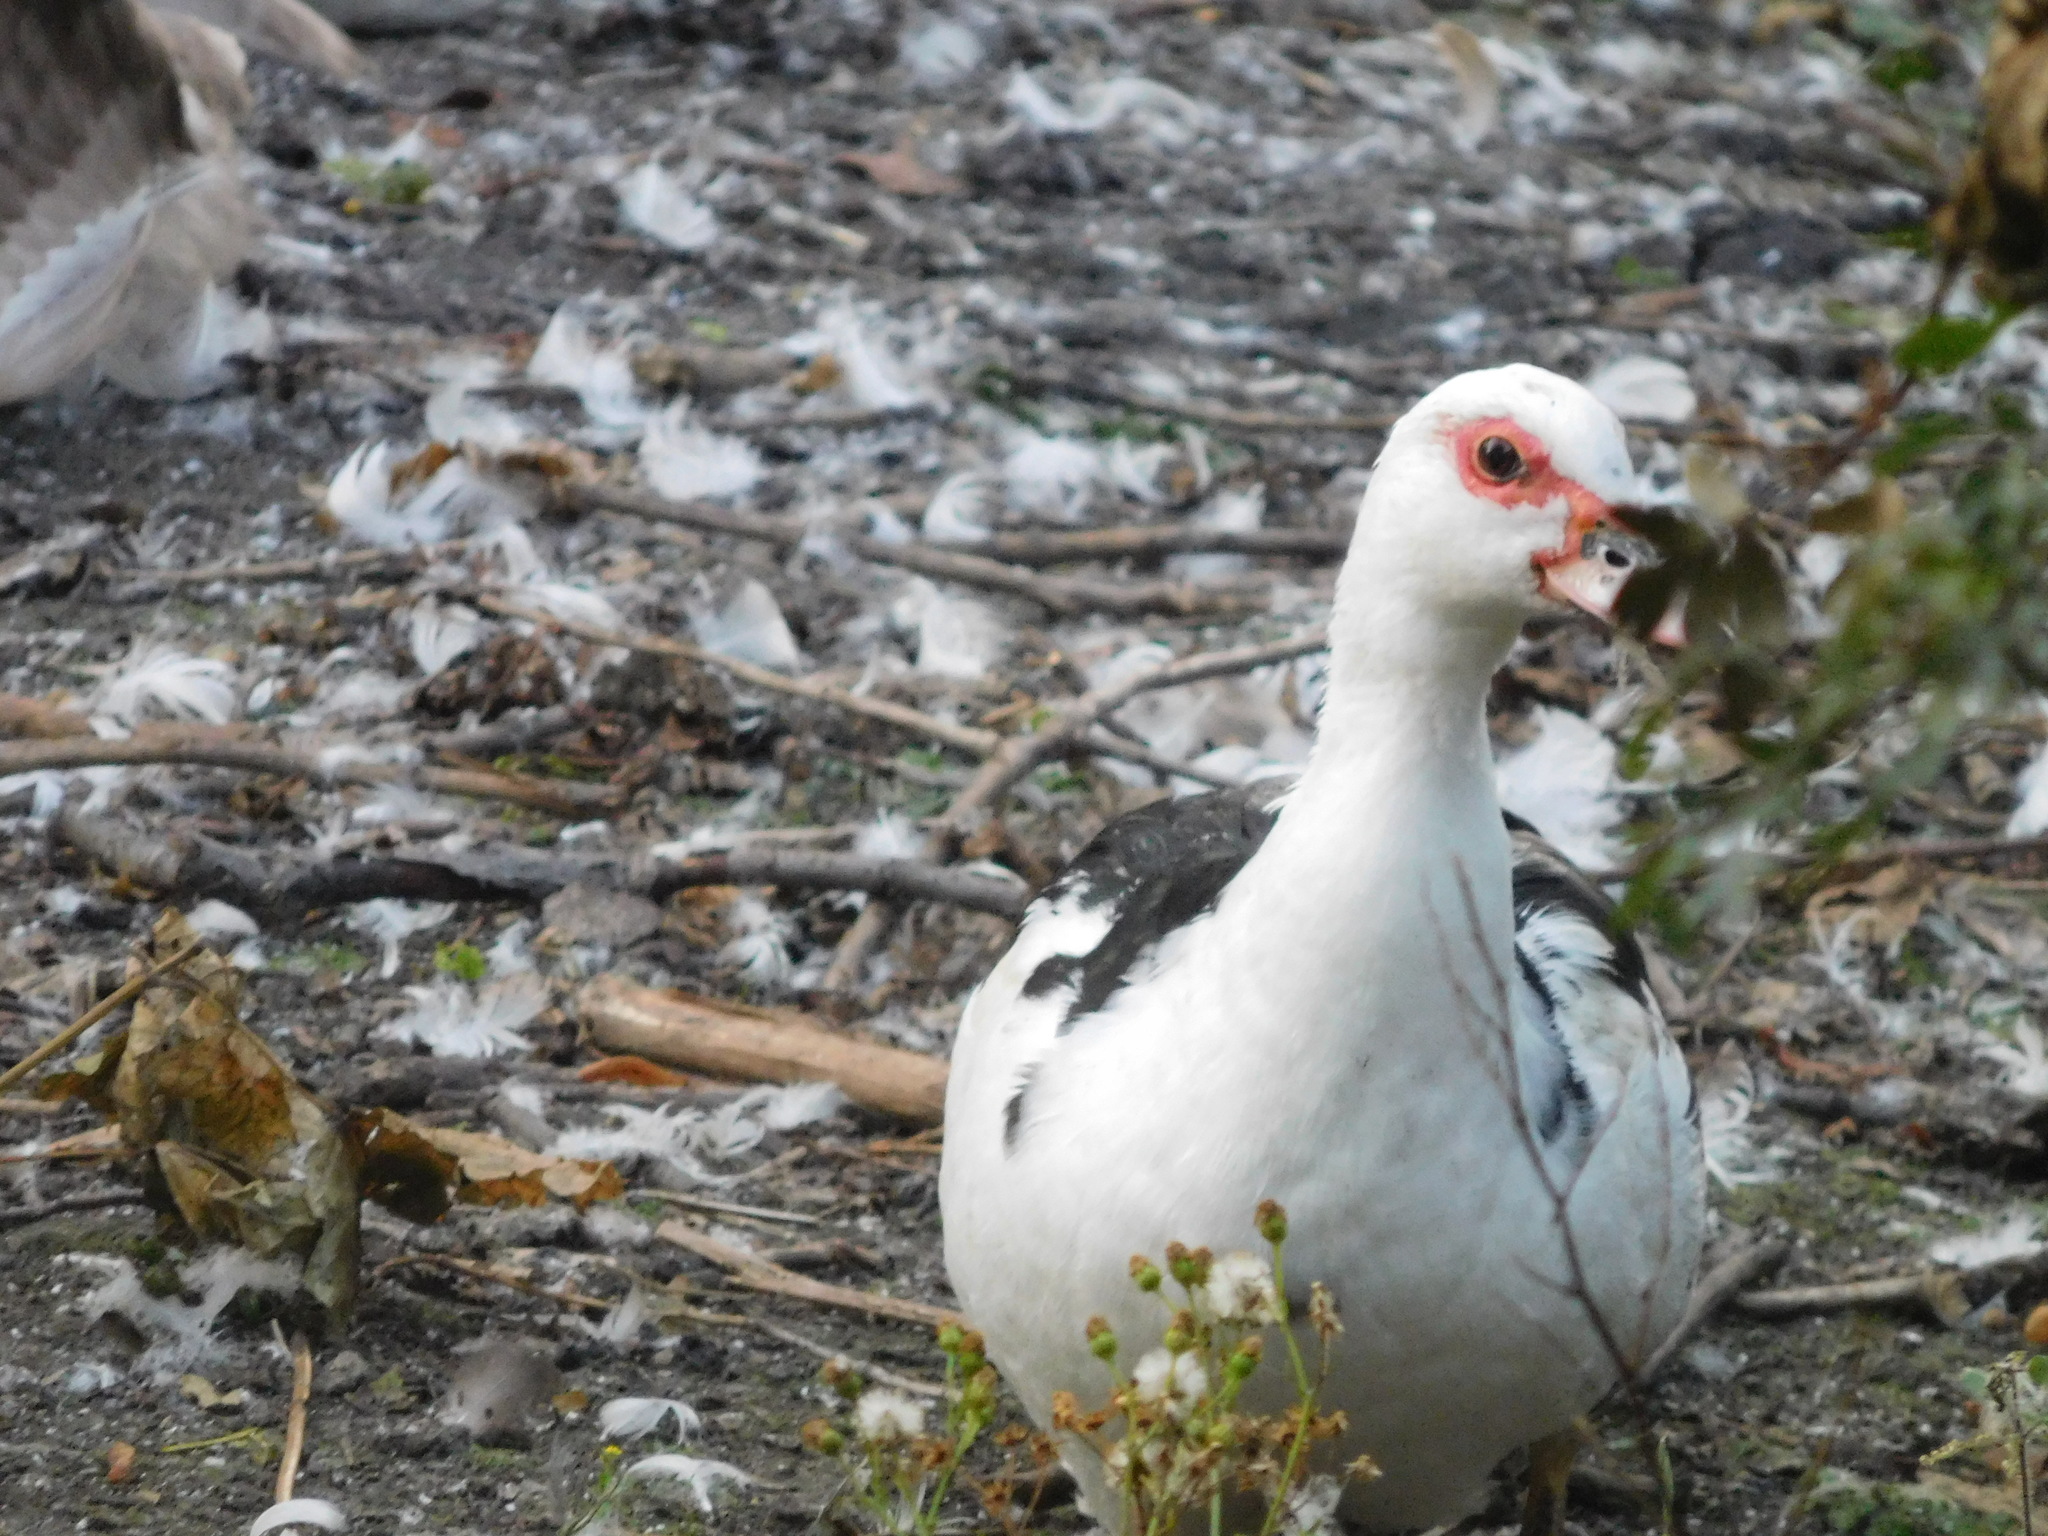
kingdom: Animalia
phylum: Chordata
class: Aves
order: Anseriformes
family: Anatidae
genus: Cairina
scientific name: Cairina moschata
